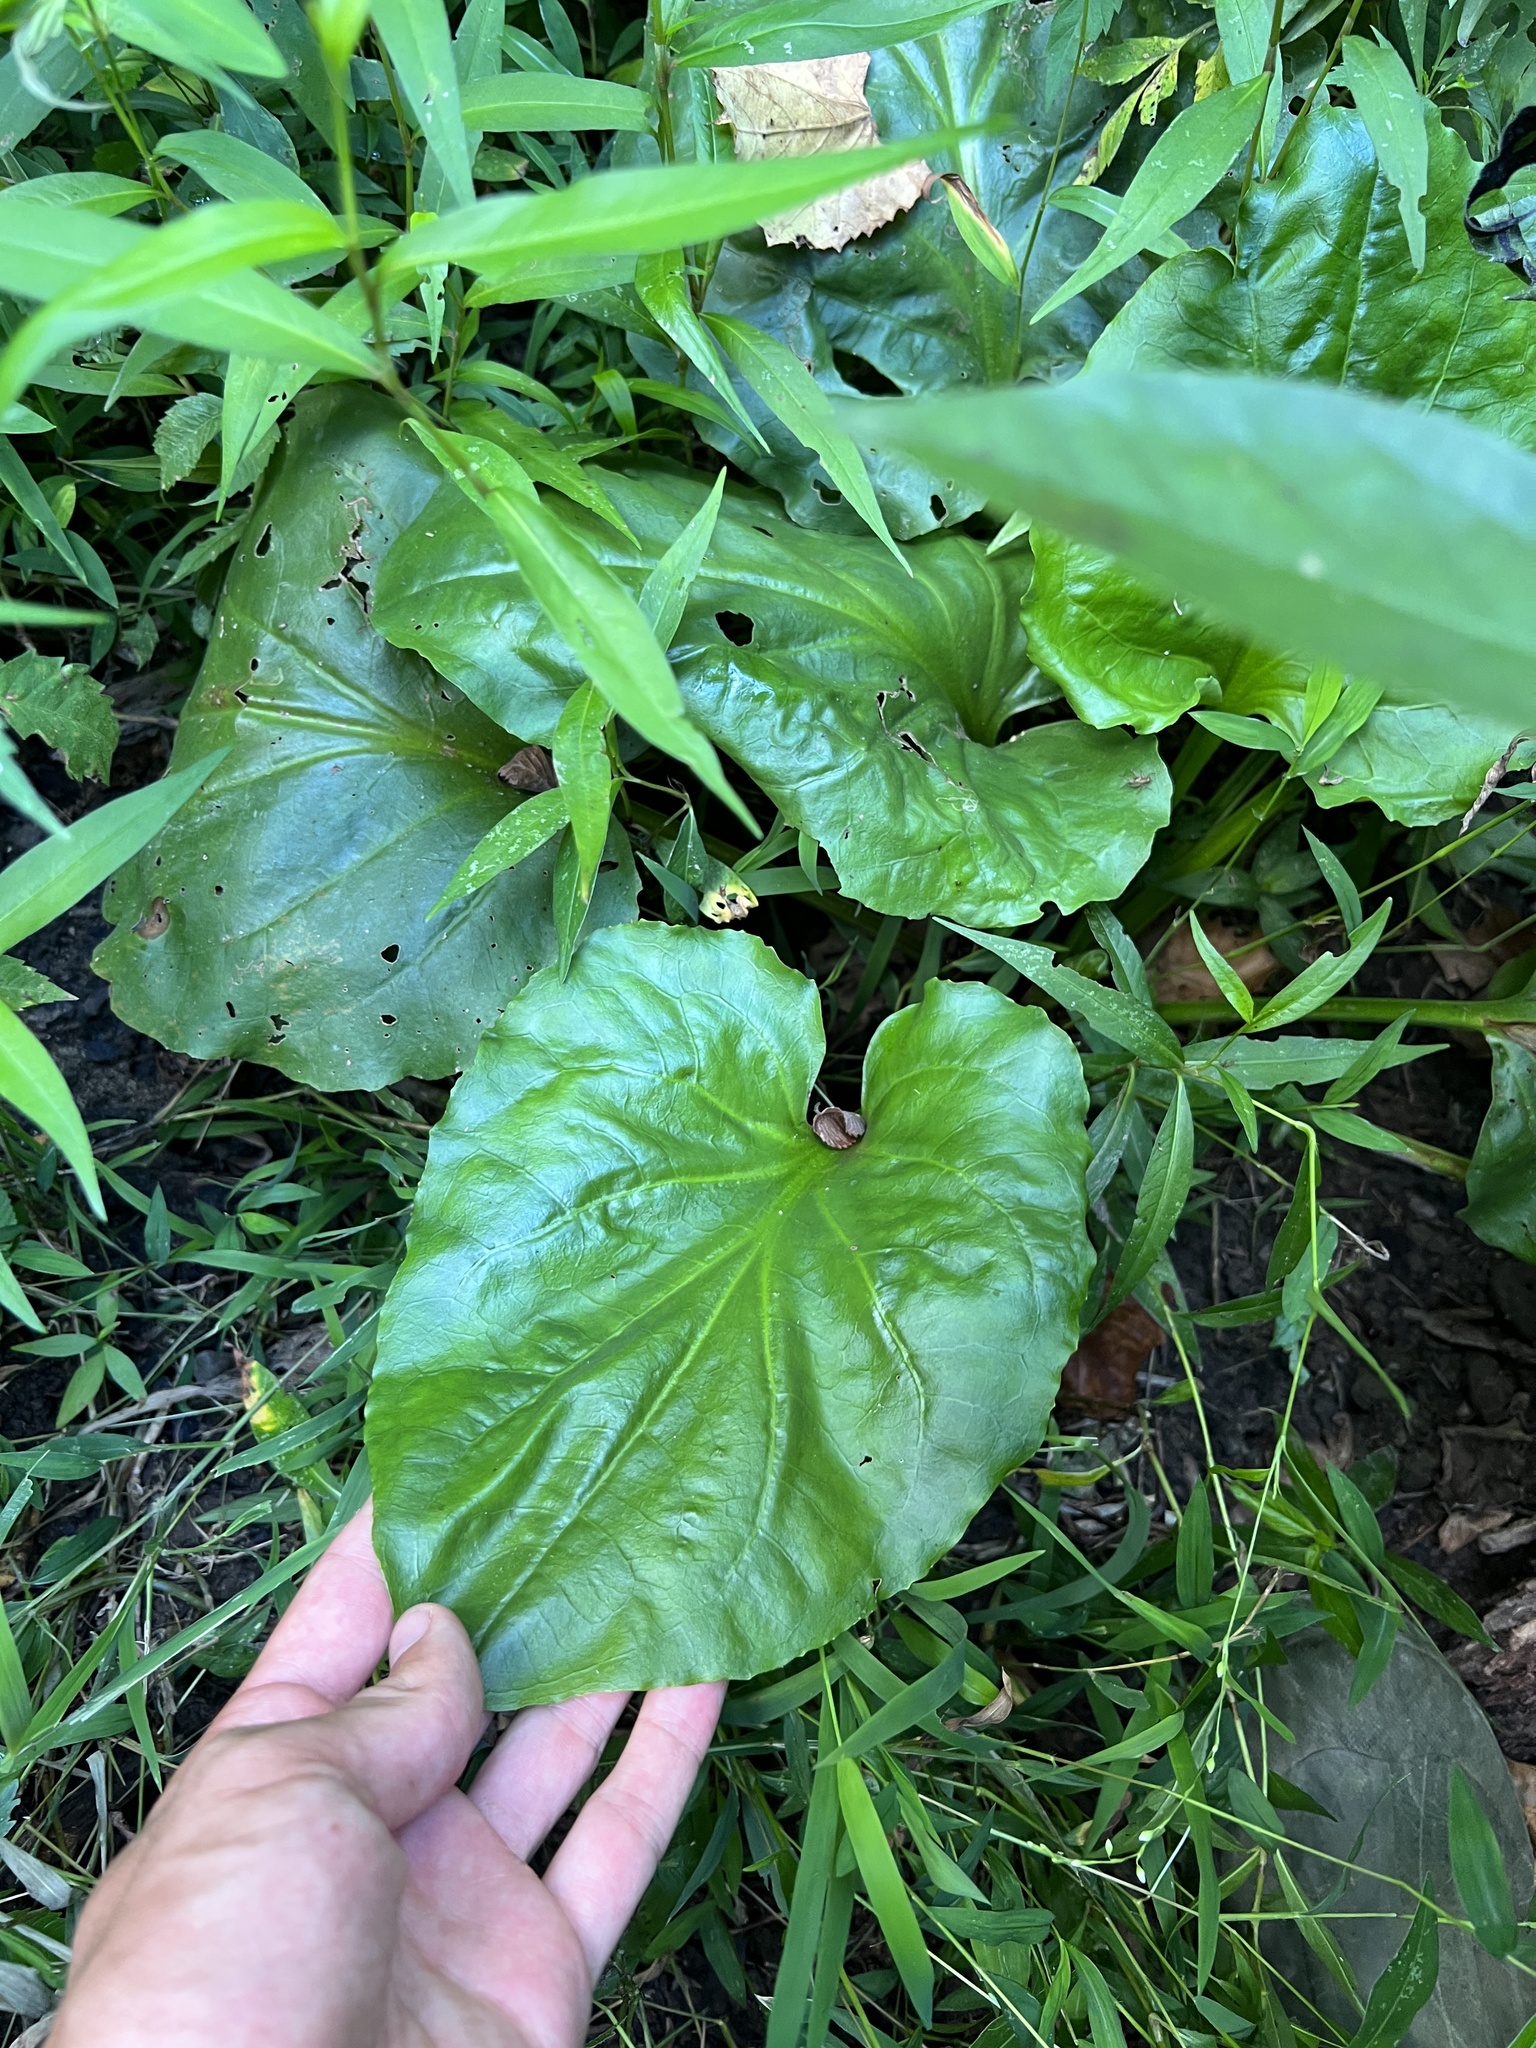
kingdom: Plantae
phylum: Tracheophyta
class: Magnoliopsida
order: Lamiales
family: Plantaginaceae
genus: Plantago
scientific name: Plantago cordata
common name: Kingroot
